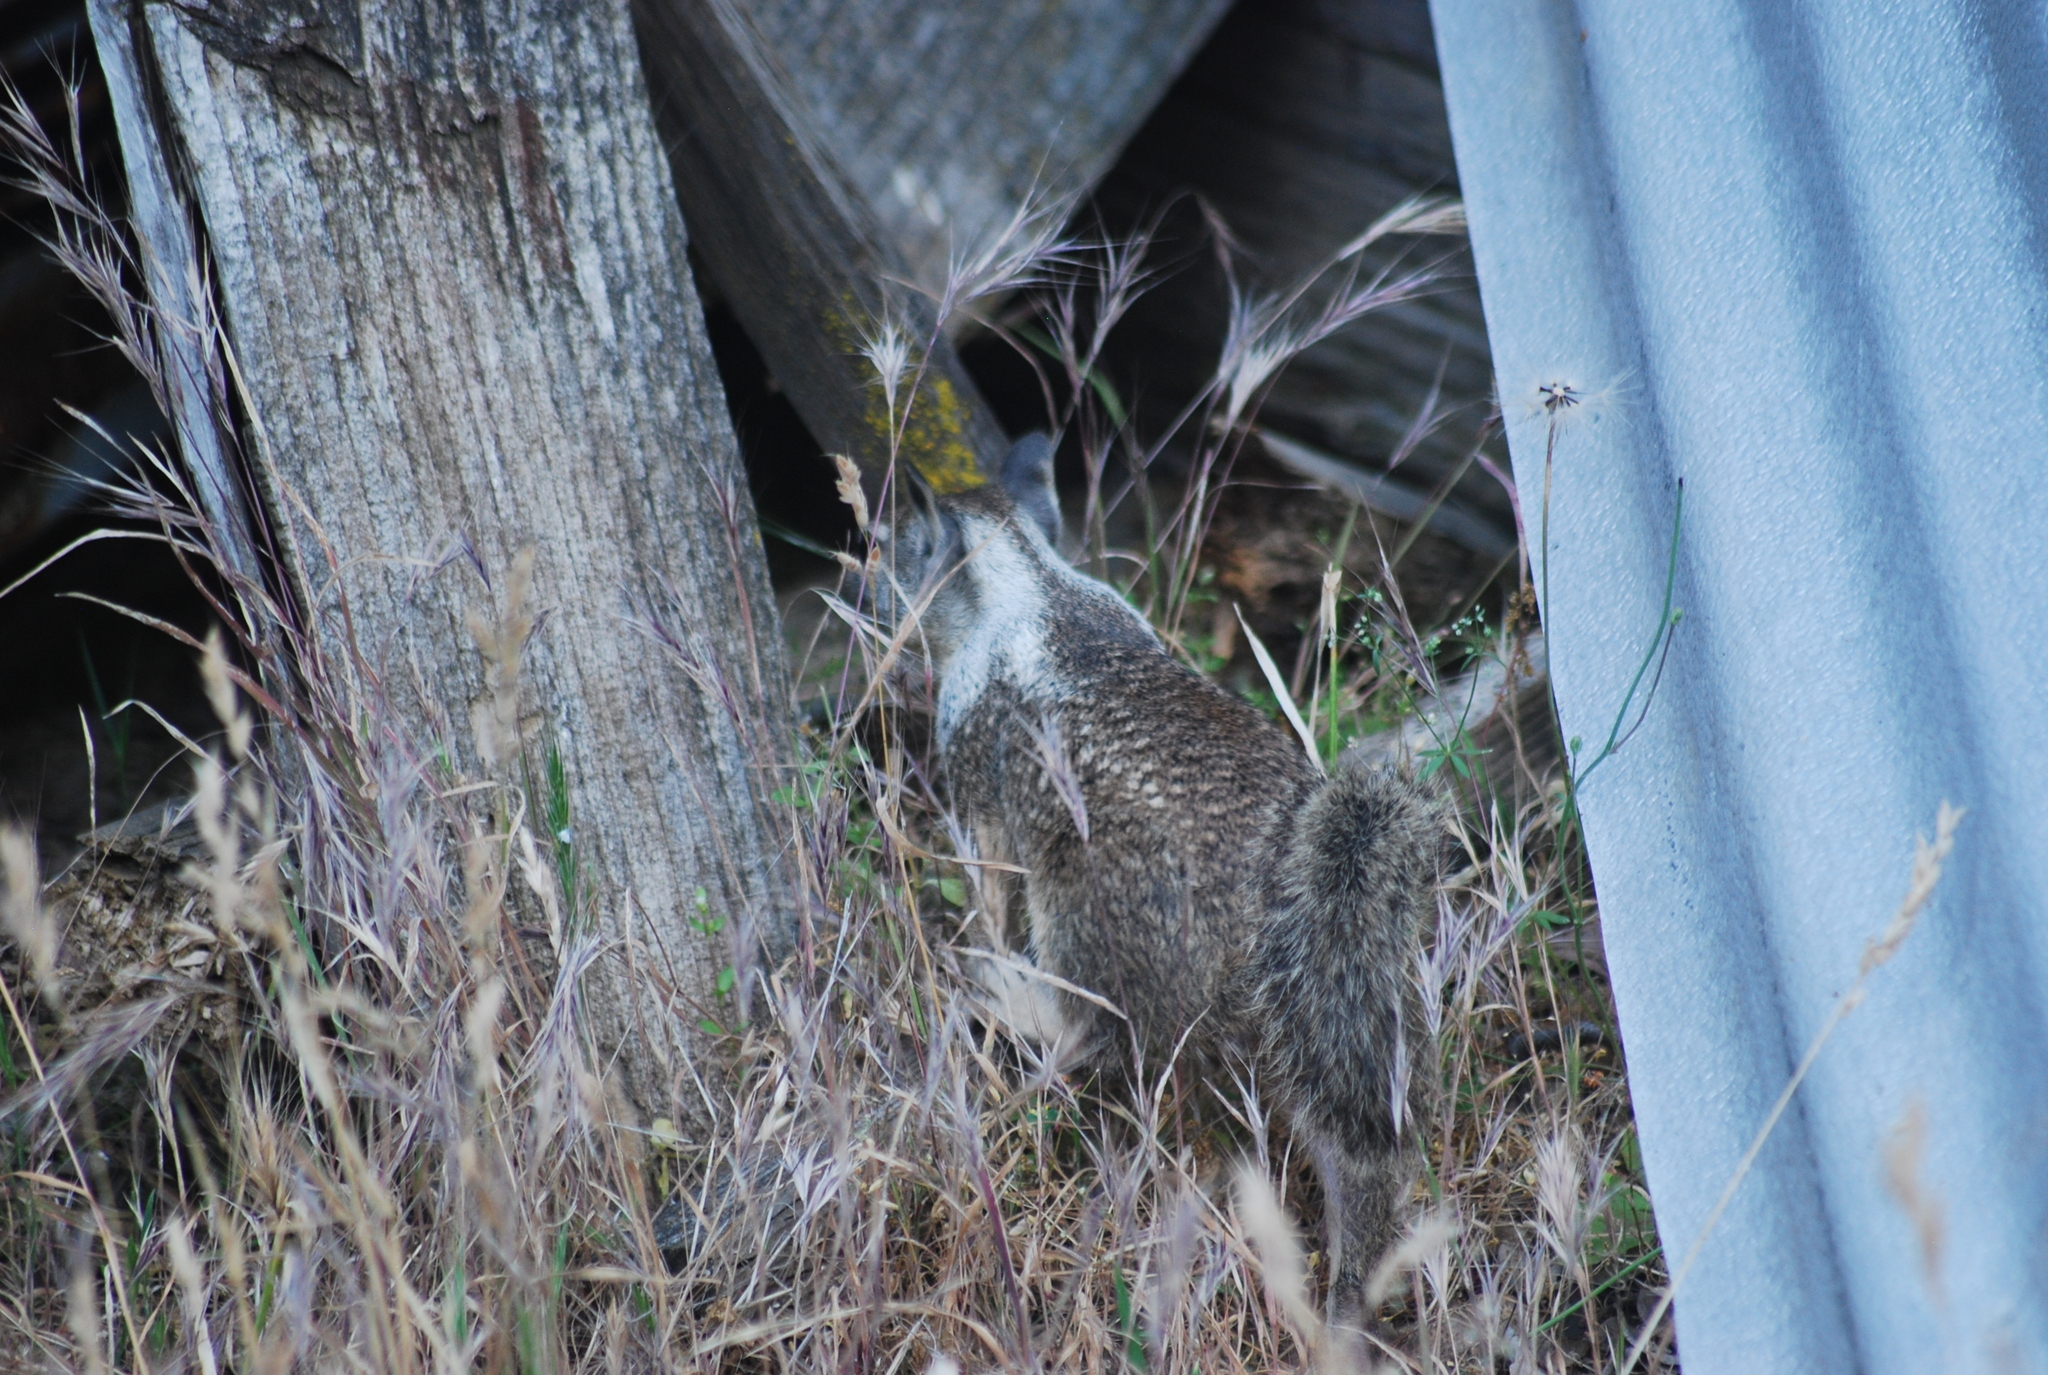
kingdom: Animalia
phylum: Chordata
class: Mammalia
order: Rodentia
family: Sciuridae
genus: Otospermophilus
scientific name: Otospermophilus beecheyi
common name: California ground squirrel
